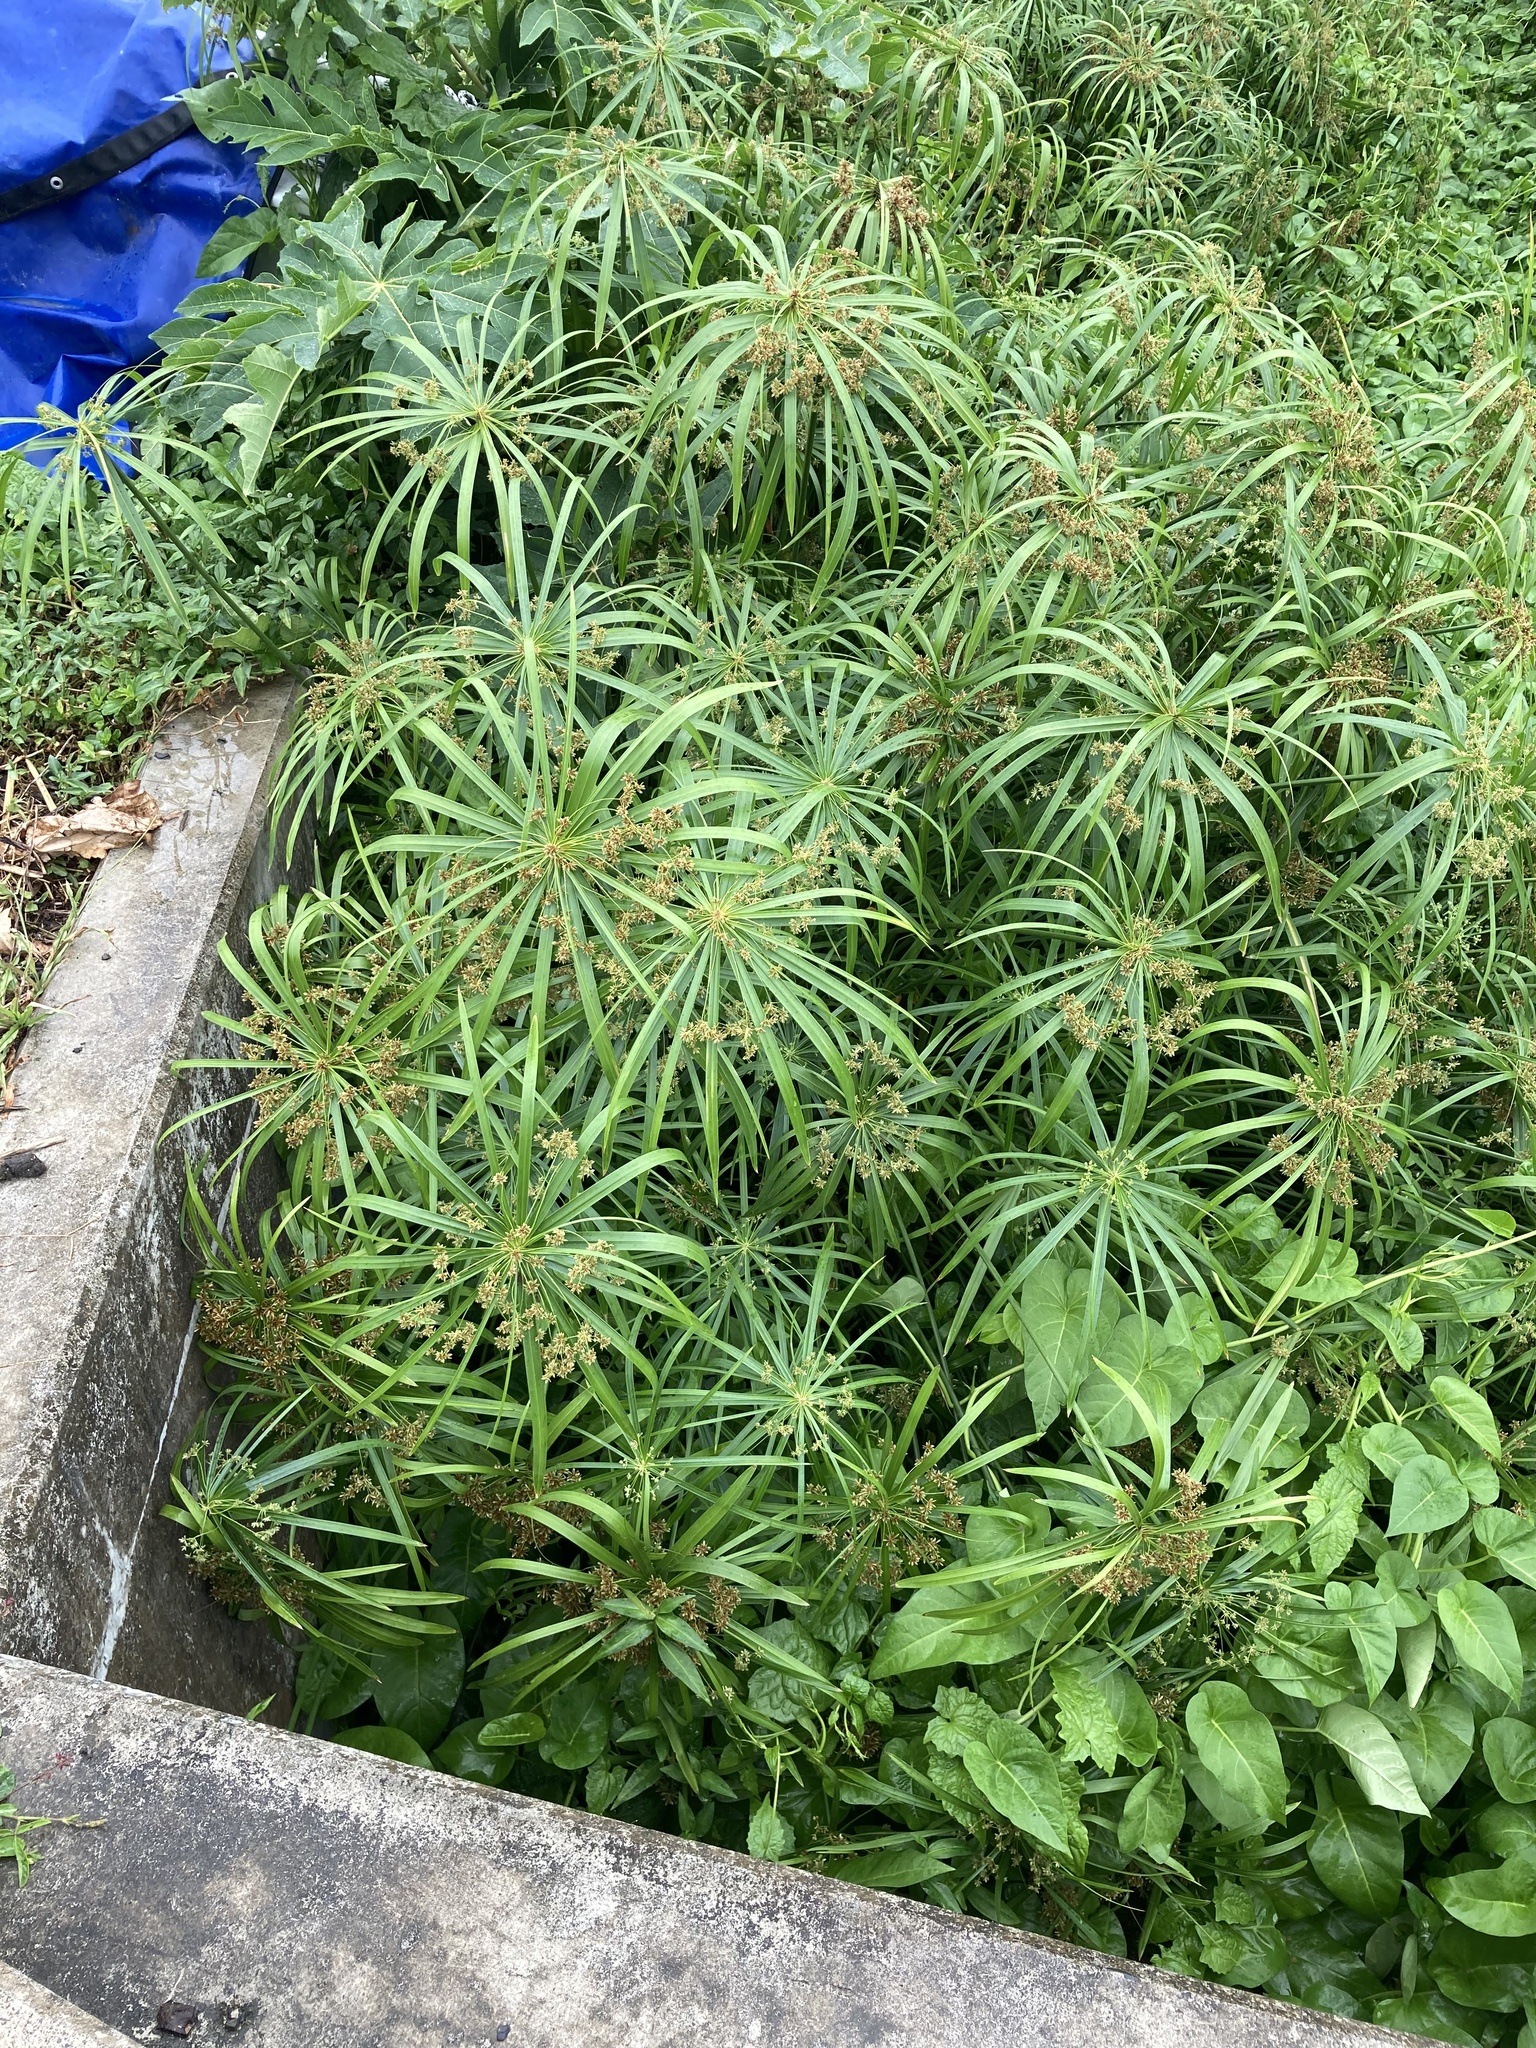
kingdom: Plantae
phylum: Tracheophyta
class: Liliopsida
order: Poales
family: Cyperaceae
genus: Cyperus
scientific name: Cyperus alternifolius
